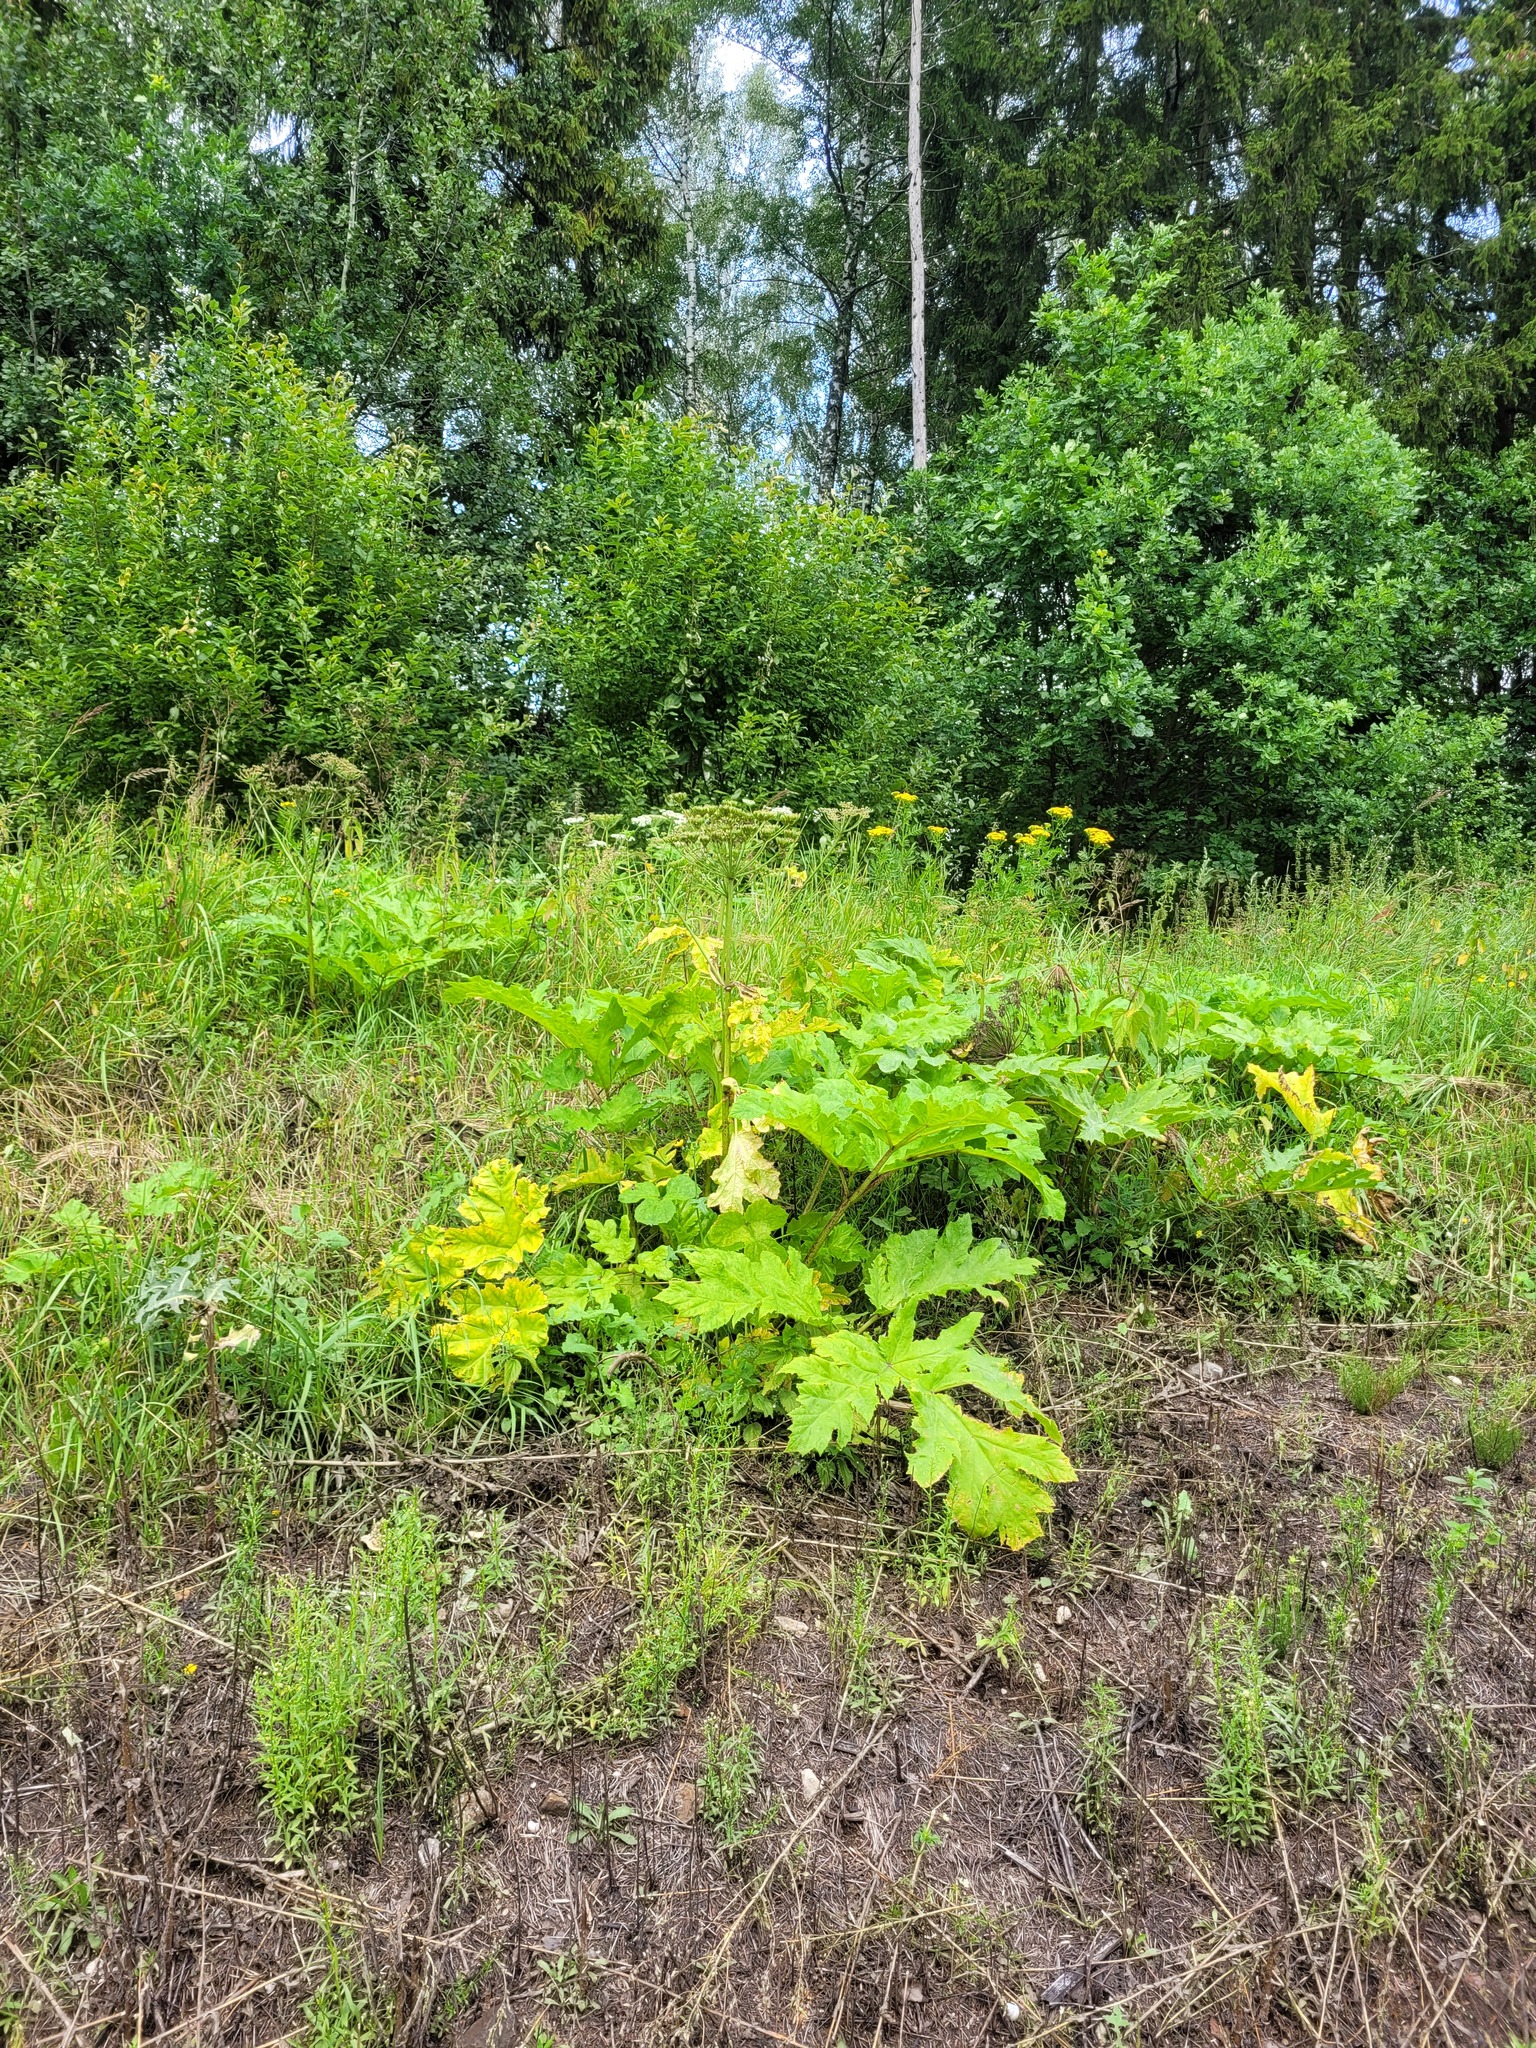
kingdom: Plantae
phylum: Tracheophyta
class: Magnoliopsida
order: Apiales
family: Apiaceae
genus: Heracleum
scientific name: Heracleum sosnowskyi
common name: Sosnowsky's hogweed
